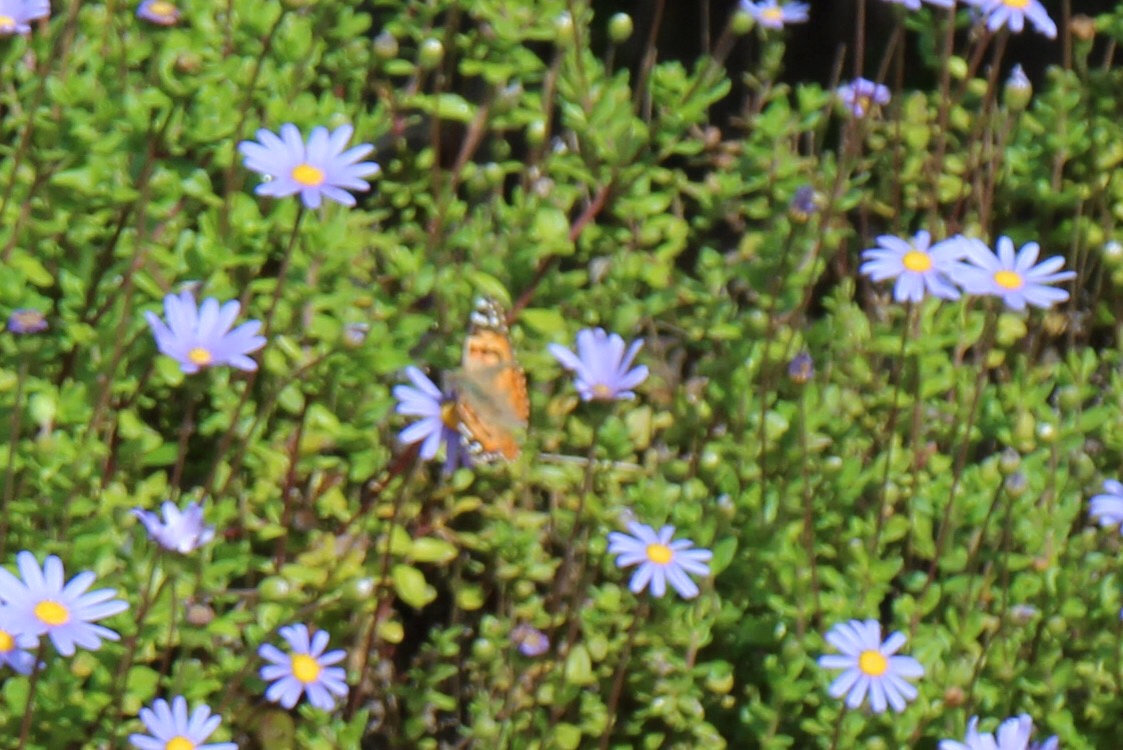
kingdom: Animalia
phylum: Arthropoda
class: Insecta
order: Lepidoptera
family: Nymphalidae
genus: Vanessa
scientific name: Vanessa cardui
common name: Painted lady
